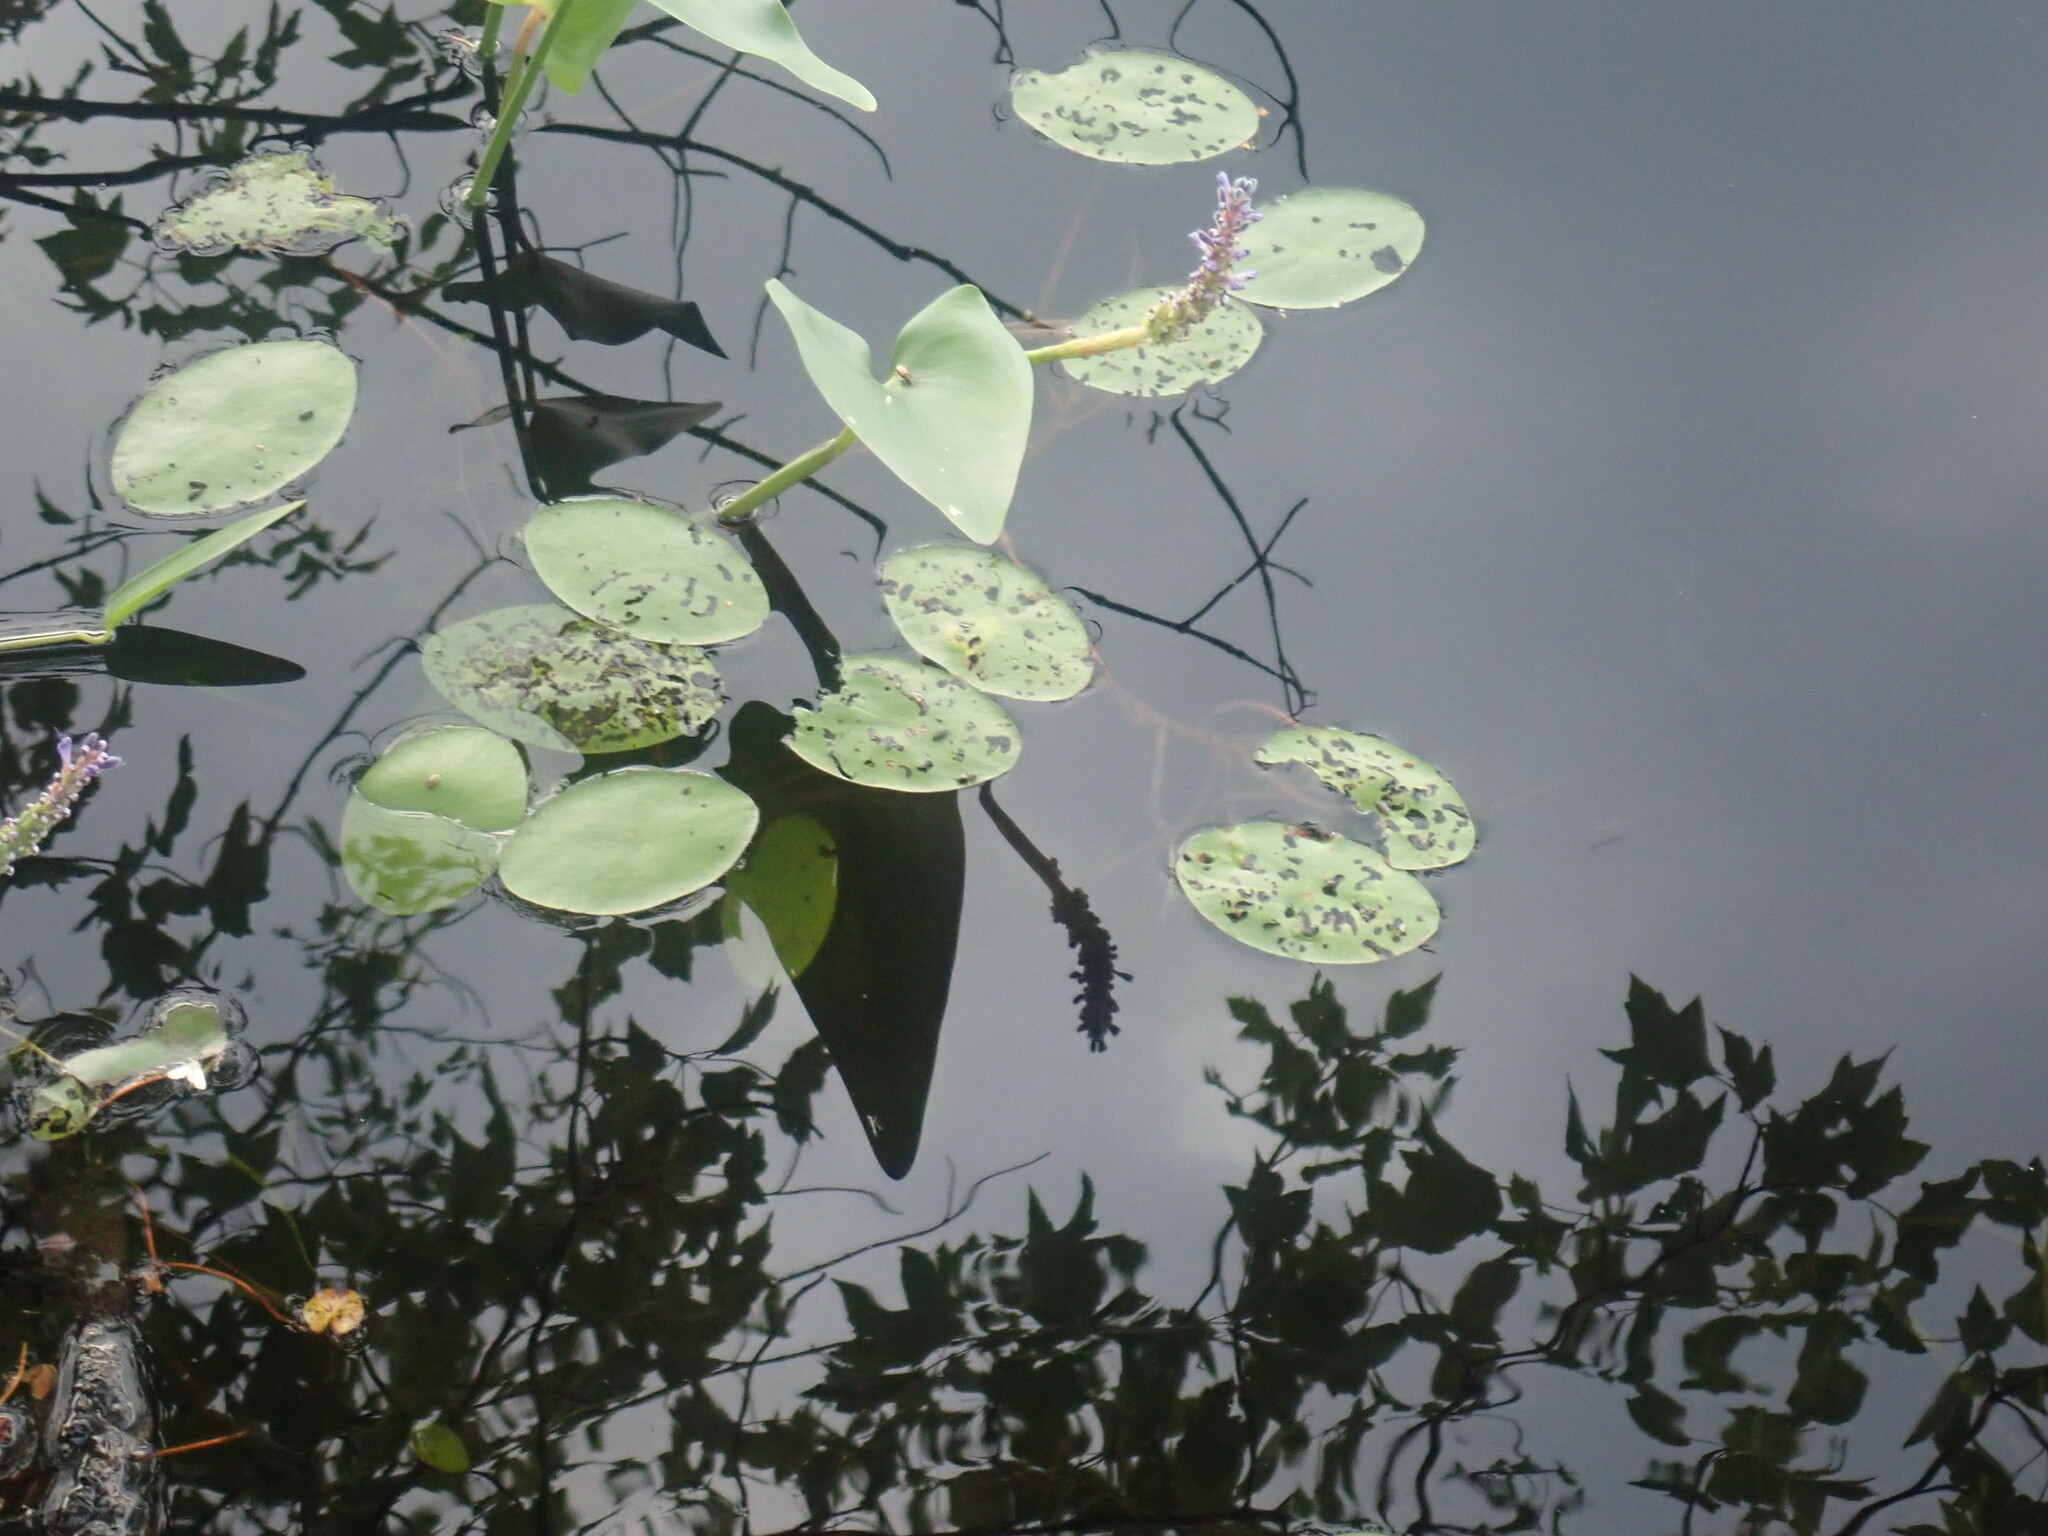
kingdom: Plantae
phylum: Tracheophyta
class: Magnoliopsida
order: Nymphaeales
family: Cabombaceae
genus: Brasenia
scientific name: Brasenia schreberi
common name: Water-shield
